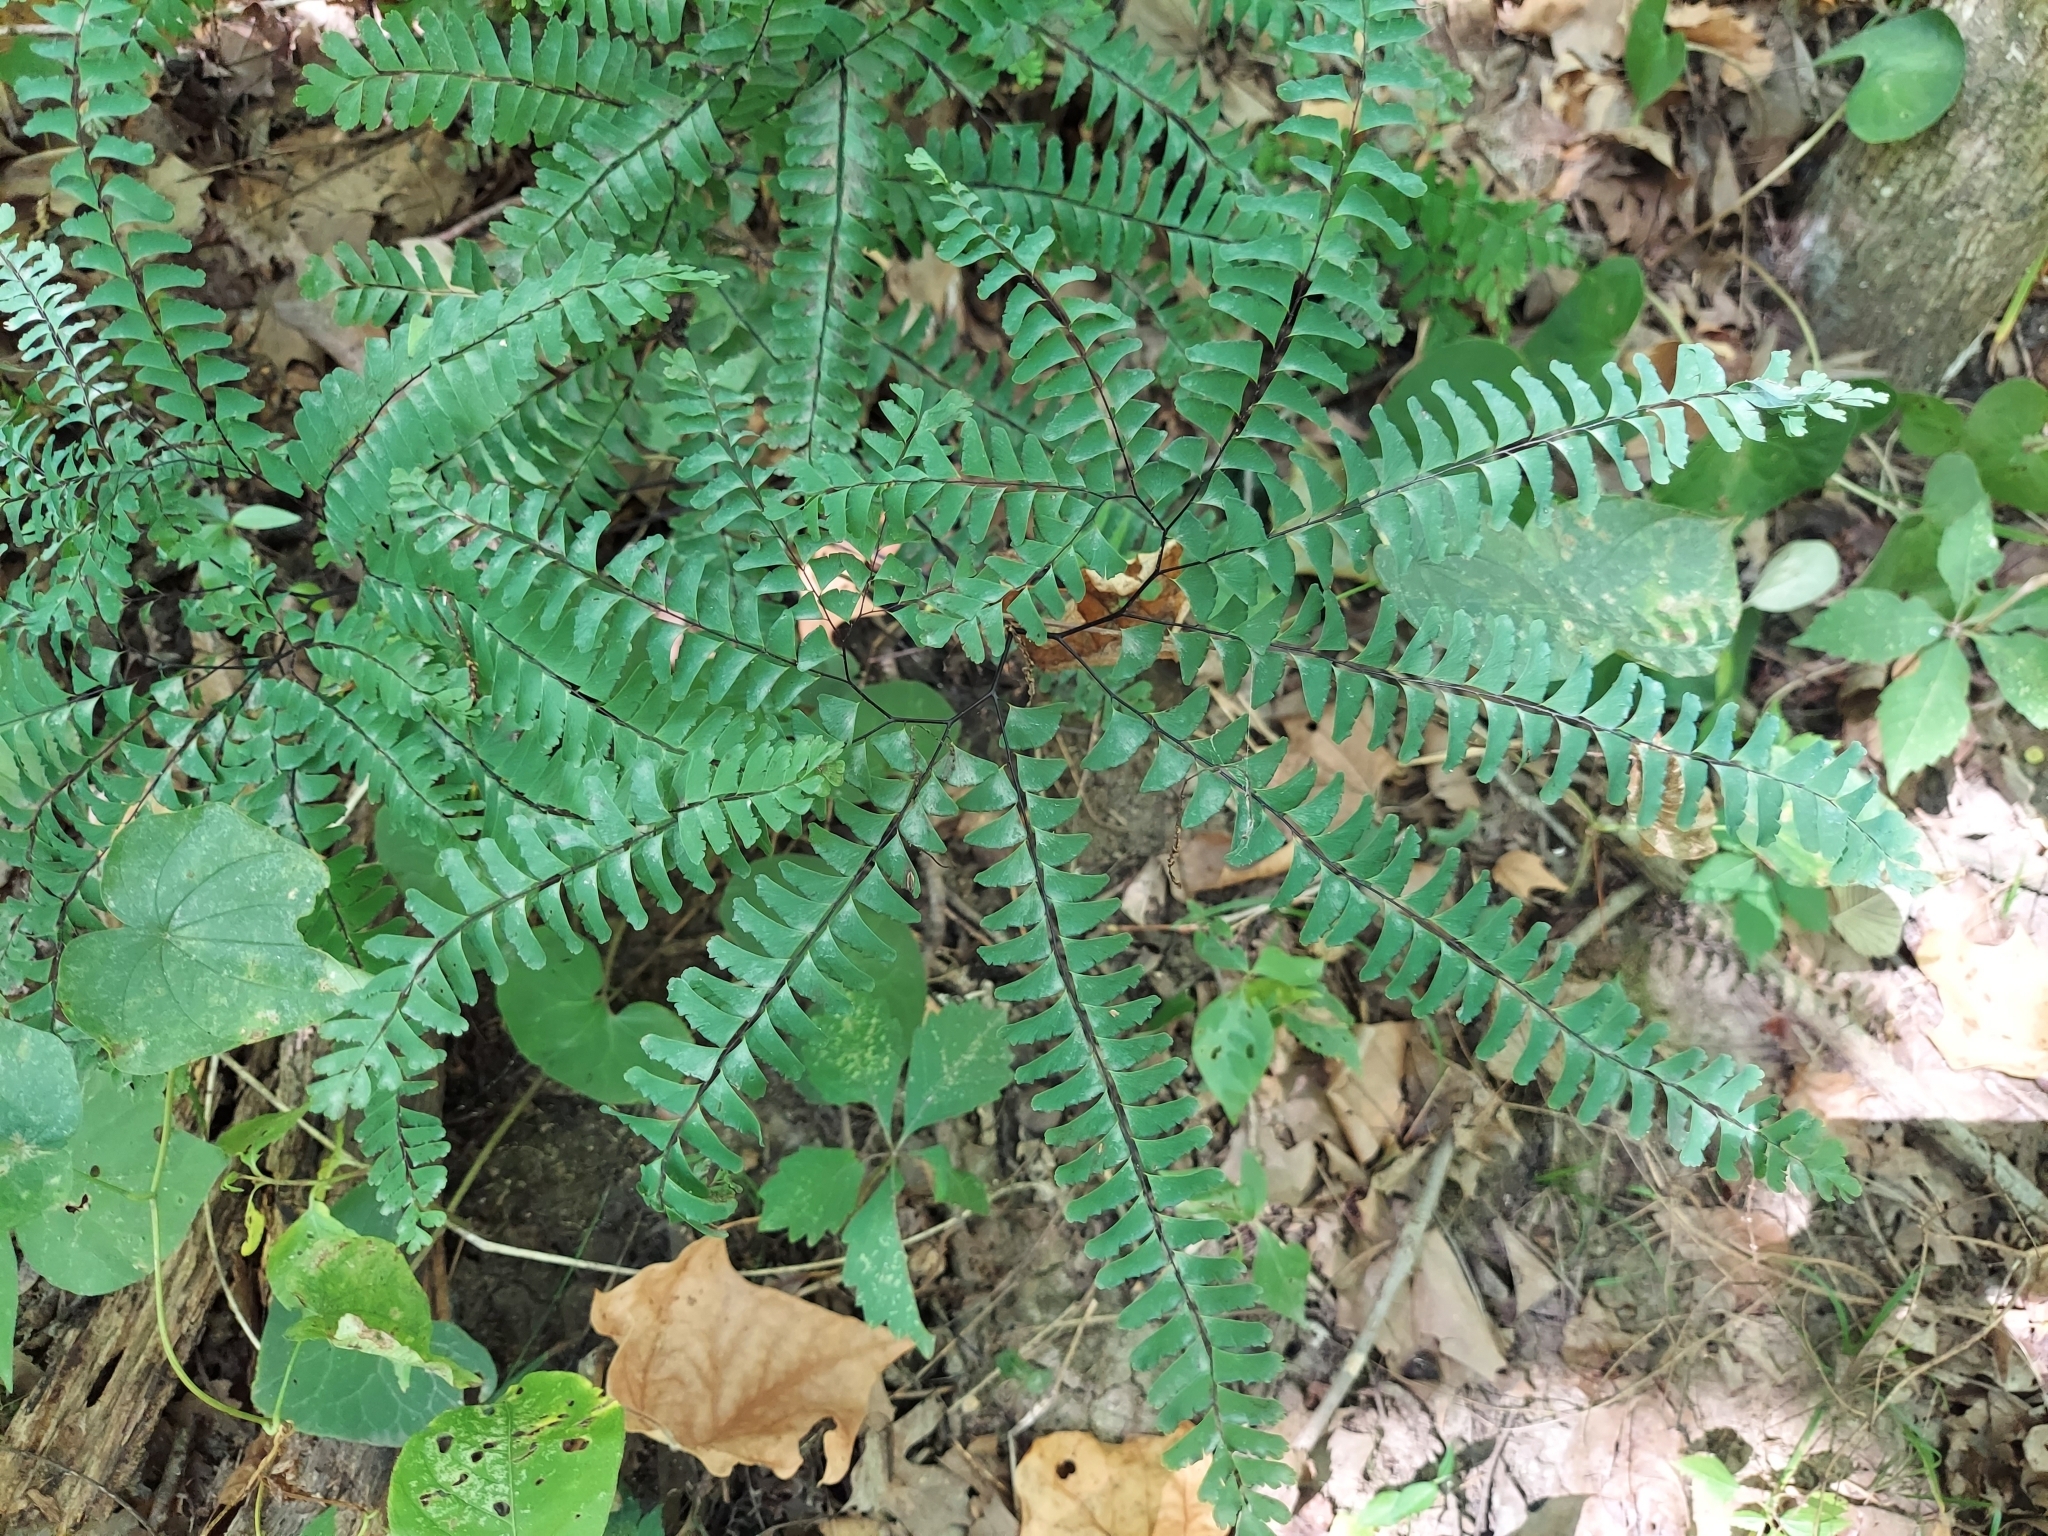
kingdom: Plantae
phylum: Tracheophyta
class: Polypodiopsida
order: Polypodiales
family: Pteridaceae
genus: Adiantum
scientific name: Adiantum pedatum
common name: Five-finger fern
